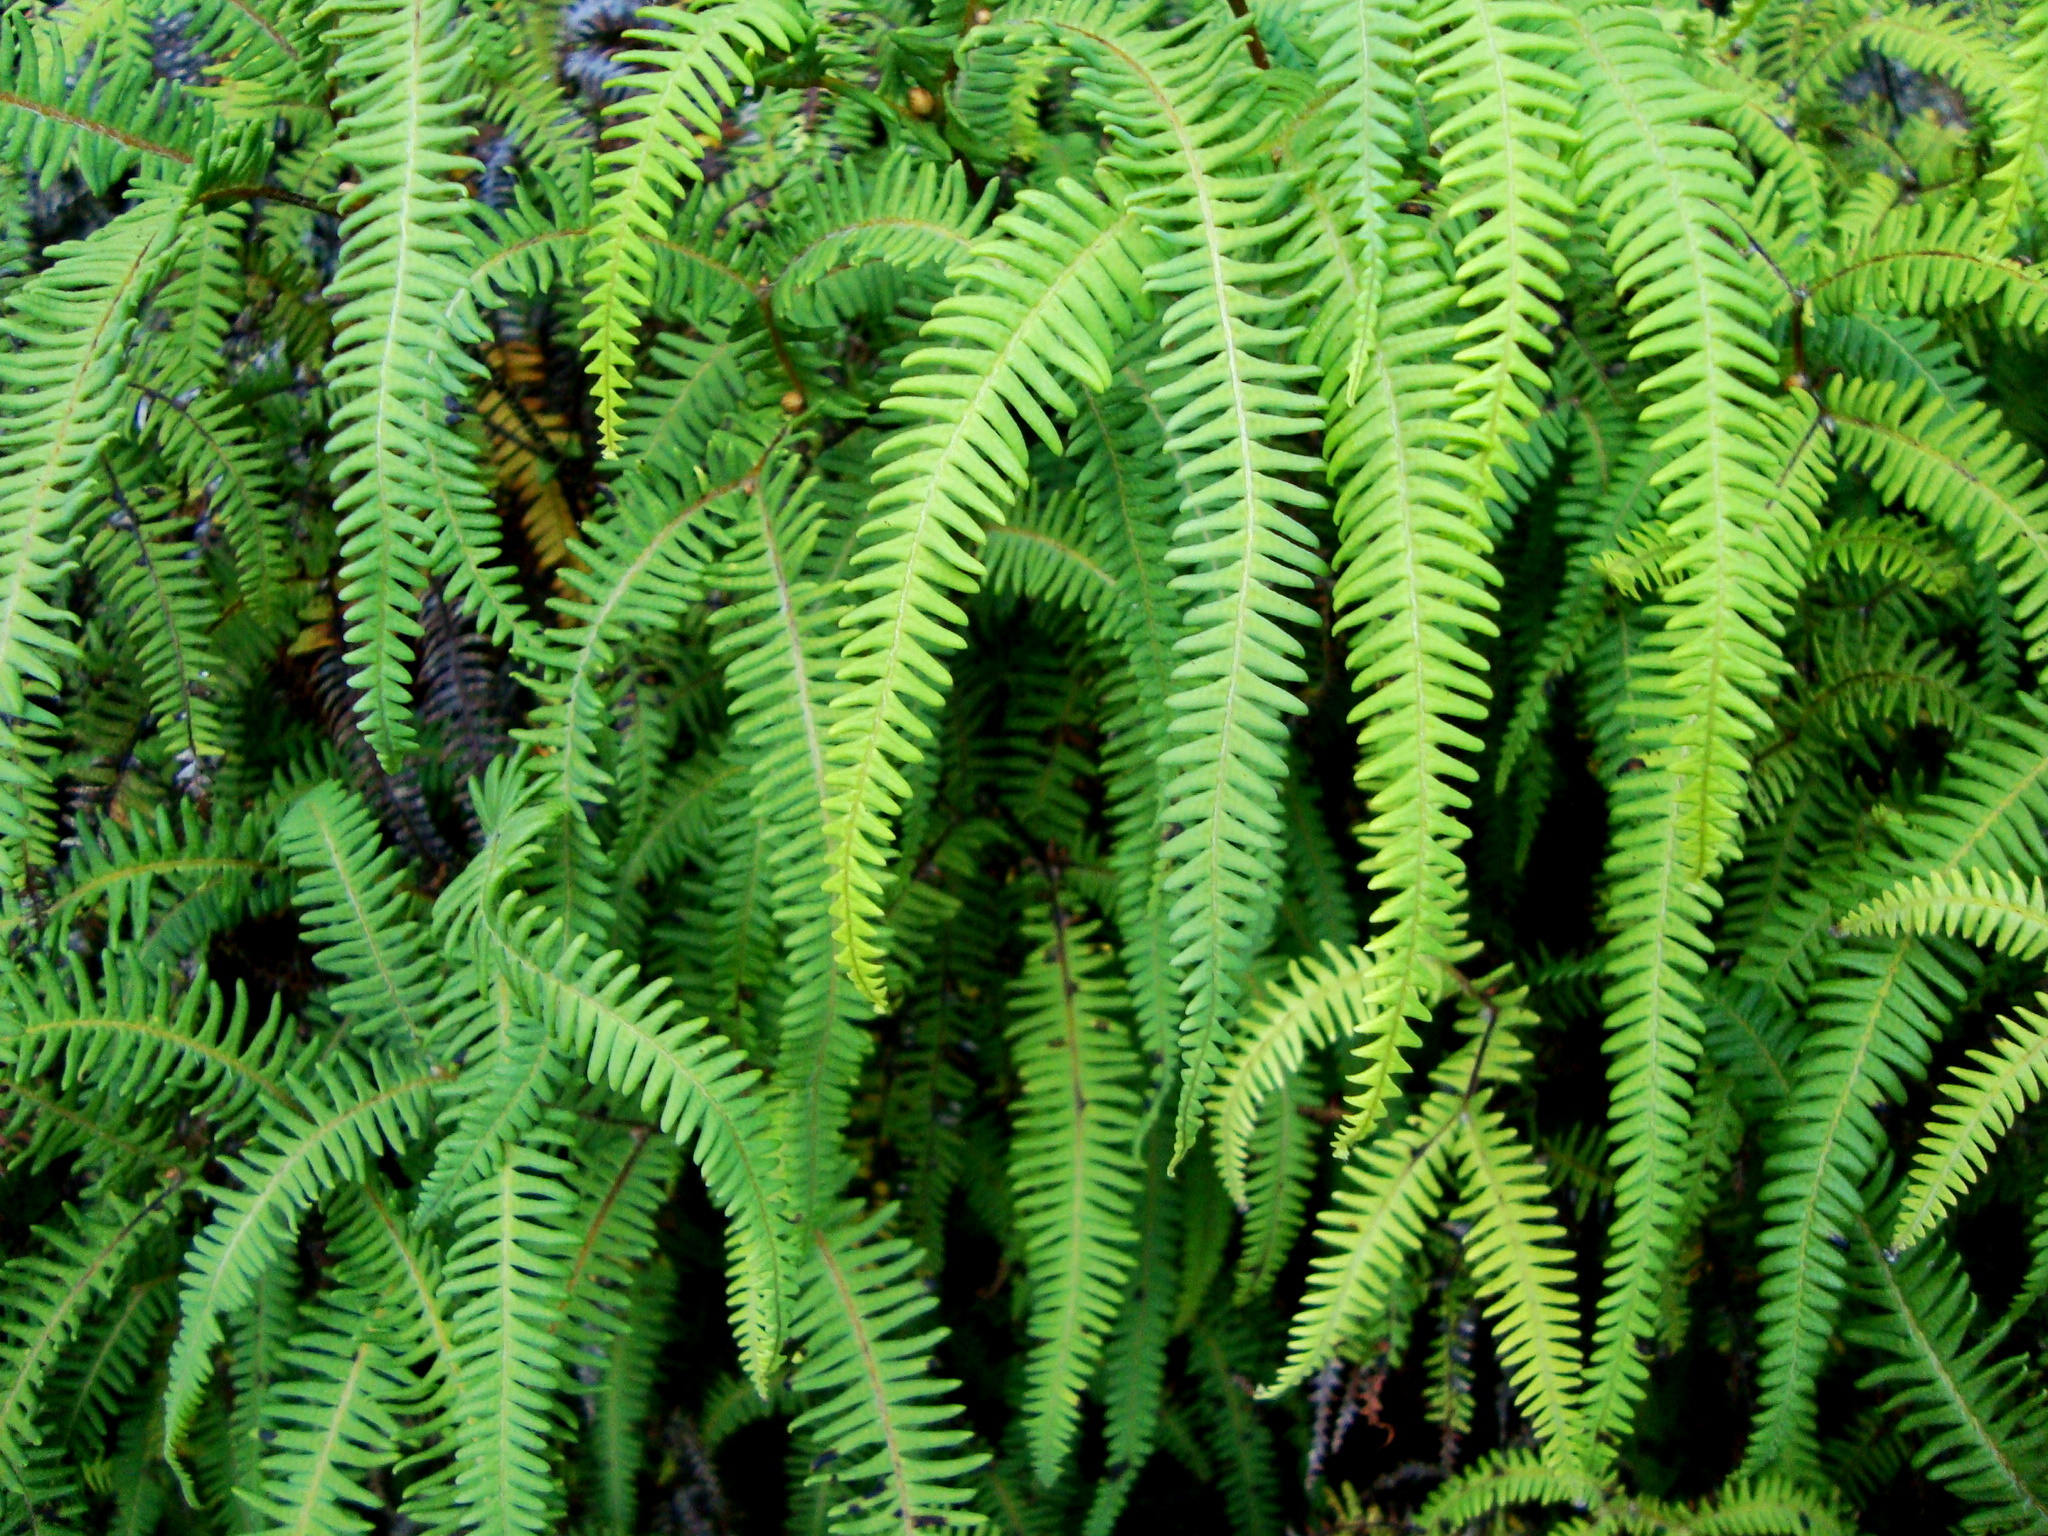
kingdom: Plantae
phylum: Tracheophyta
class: Polypodiopsida
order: Gleicheniales
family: Gleicheniaceae
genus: Sticherus
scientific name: Sticherus squamulosus
